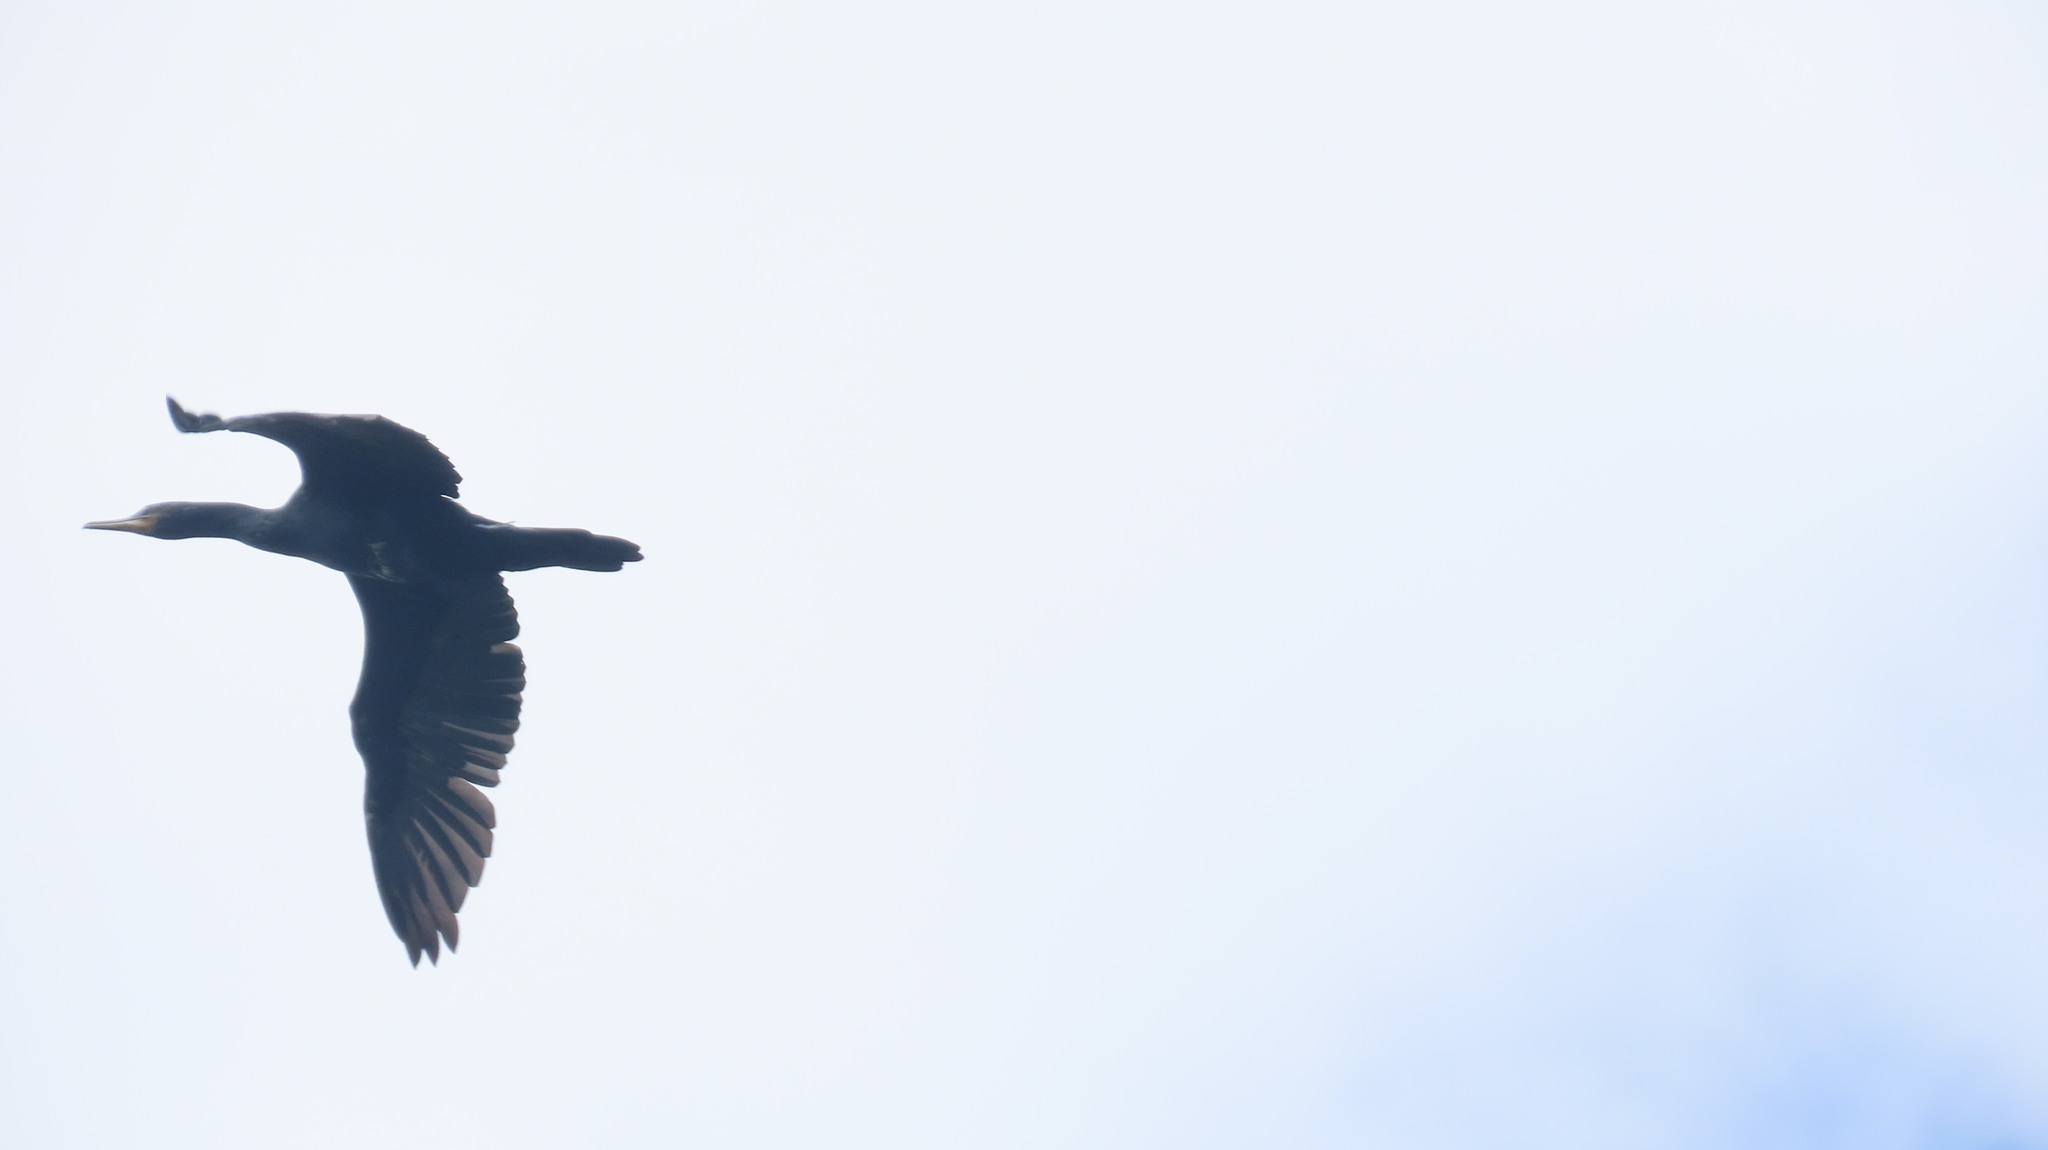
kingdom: Animalia
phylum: Chordata
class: Aves
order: Suliformes
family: Phalacrocoracidae
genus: Phalacrocorax
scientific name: Phalacrocorax fuscicollis
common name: Indian cormorant
